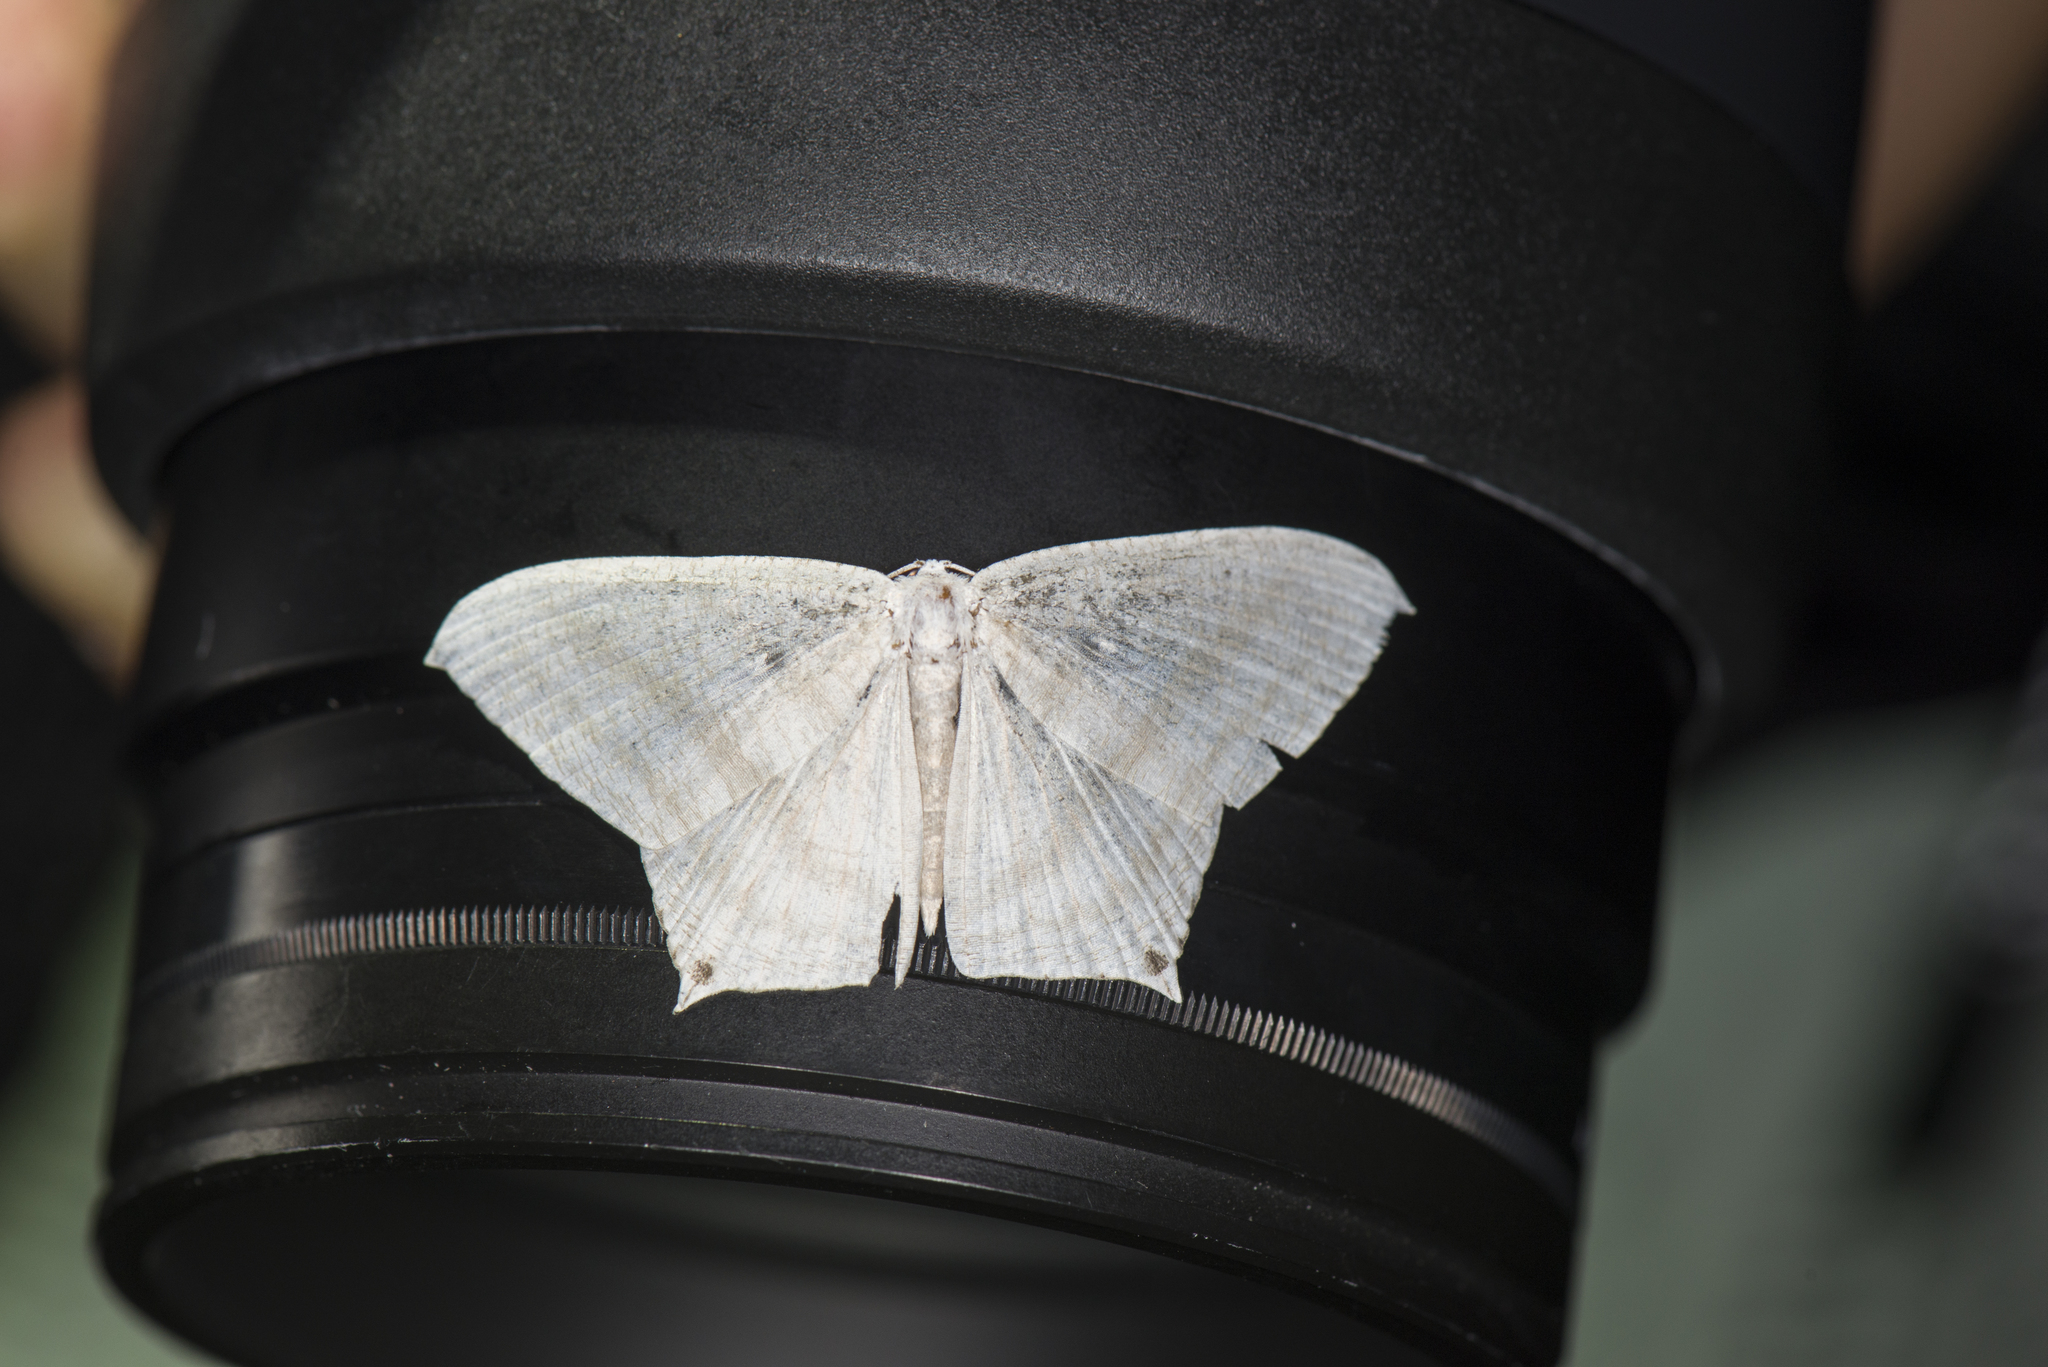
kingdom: Animalia
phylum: Arthropoda
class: Insecta
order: Lepidoptera
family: Uraniidae
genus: Micronia
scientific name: Micronia aculeata
